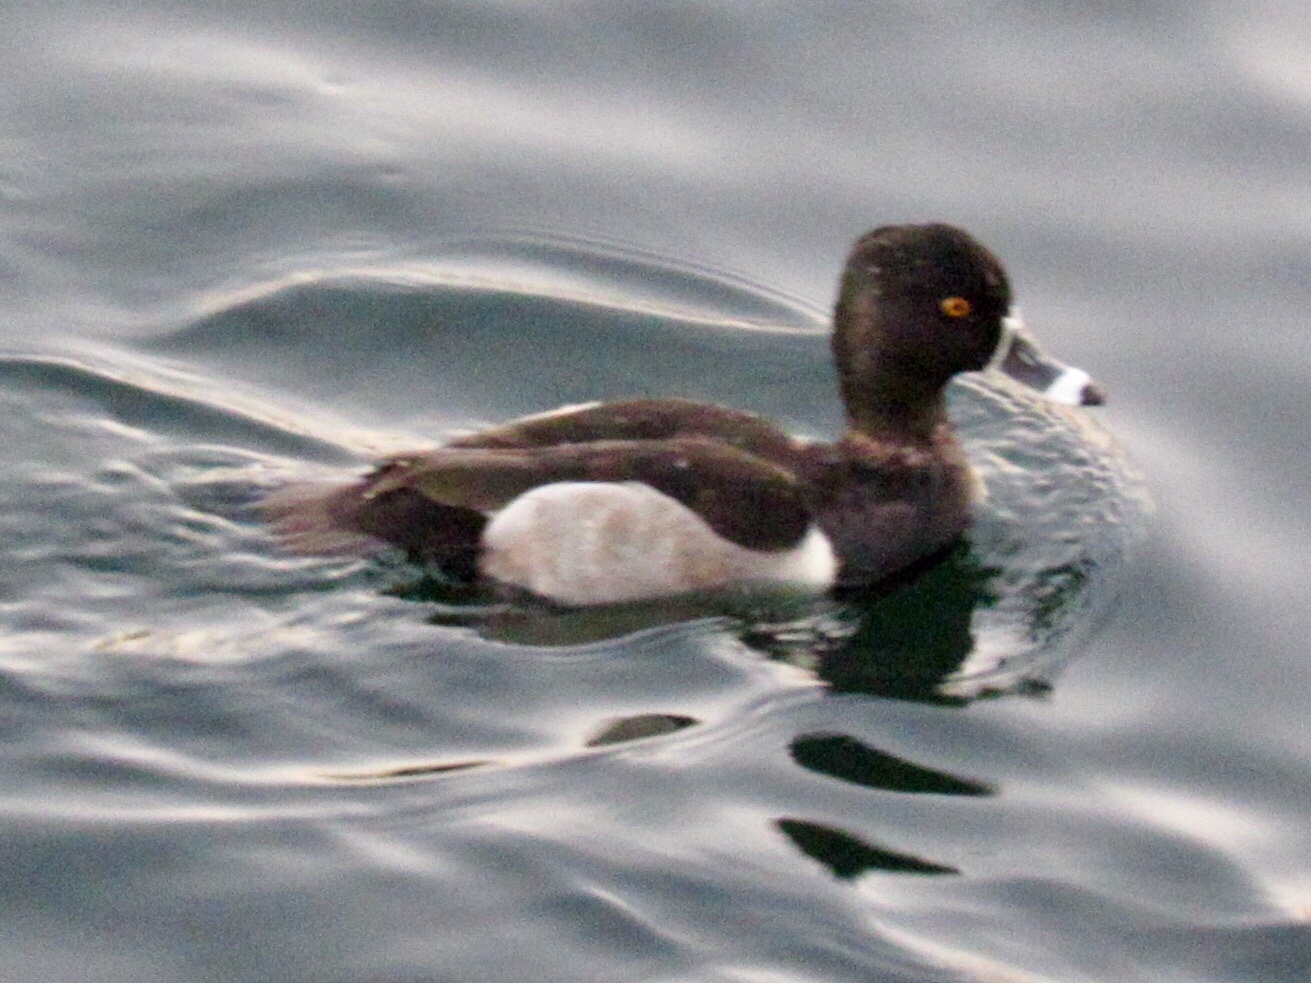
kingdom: Animalia
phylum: Chordata
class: Aves
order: Anseriformes
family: Anatidae
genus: Aythya
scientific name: Aythya collaris
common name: Ring-necked duck
